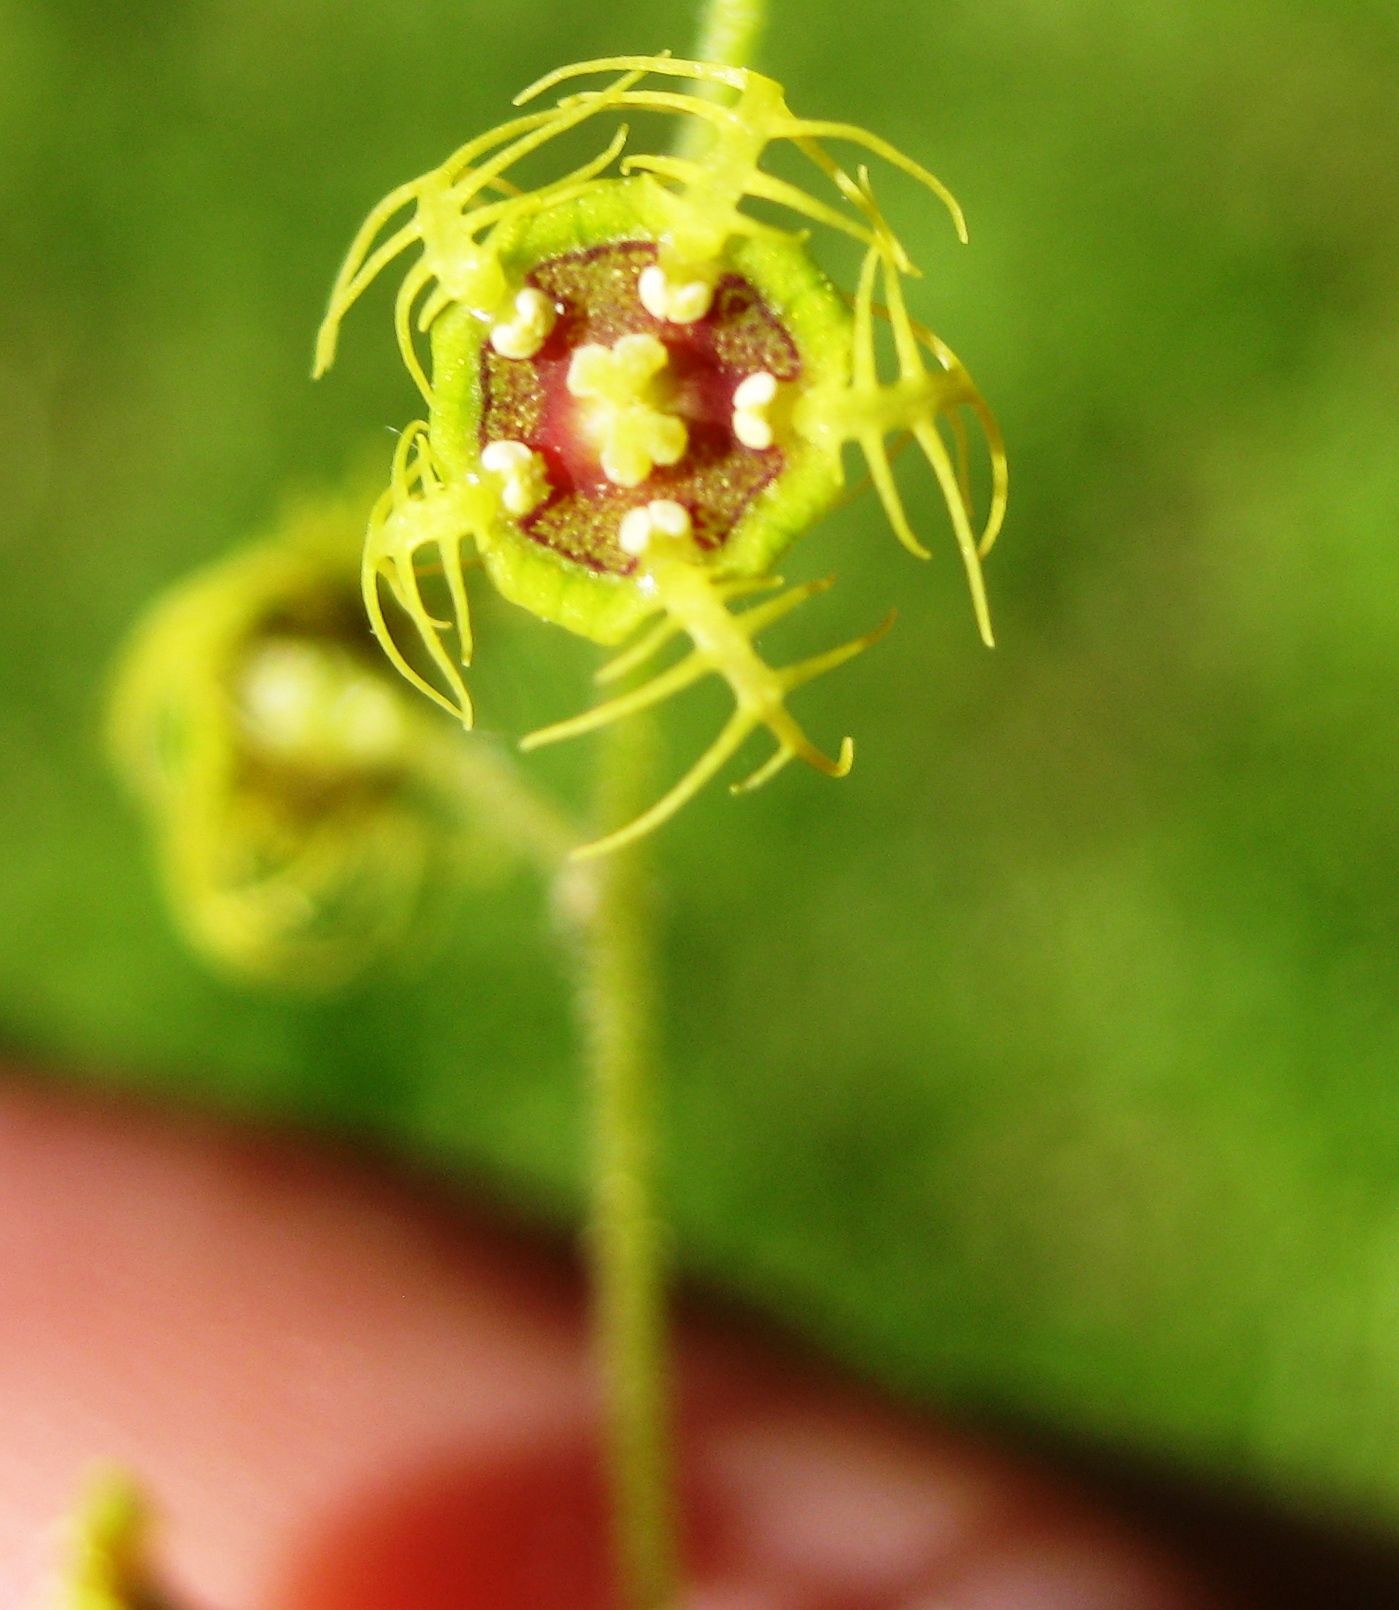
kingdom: Plantae
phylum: Tracheophyta
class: Magnoliopsida
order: Saxifragales
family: Saxifragaceae
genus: Pectiantia
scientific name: Pectiantia pentandra
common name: Alpine bishop's-cap
